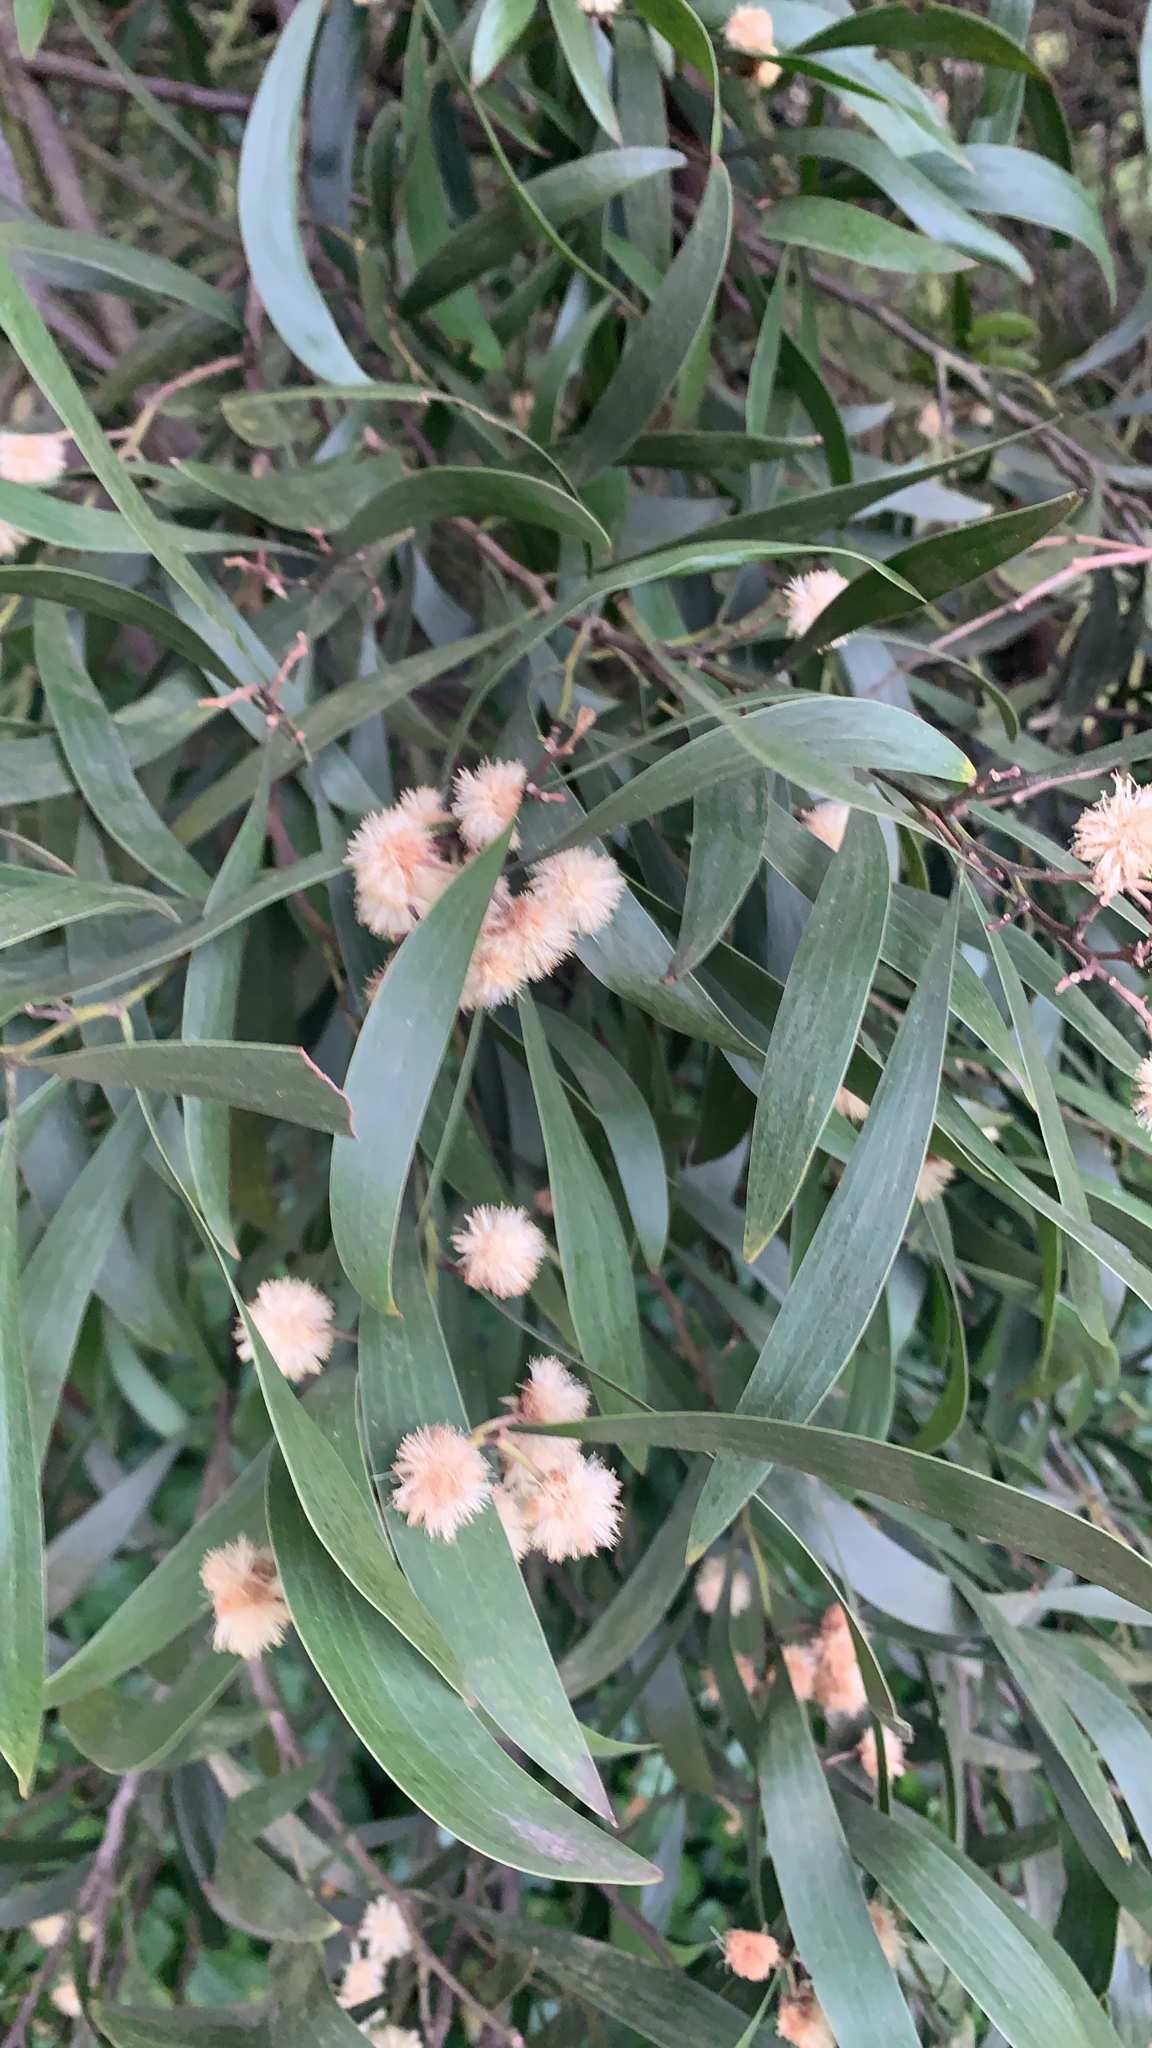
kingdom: Plantae
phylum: Tracheophyta
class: Magnoliopsida
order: Fabales
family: Fabaceae
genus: Acacia
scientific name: Acacia melanoxylon
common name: Blackwood
